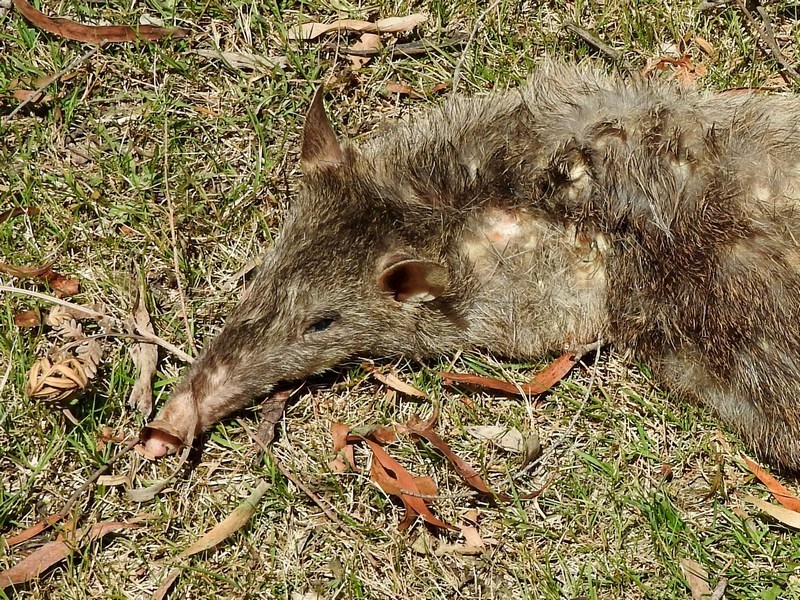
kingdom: Animalia
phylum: Chordata
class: Mammalia
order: Peramelemorphia
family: Peramelidae
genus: Perameles
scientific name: Perameles nasuta
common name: Long-nosed bandicoot
